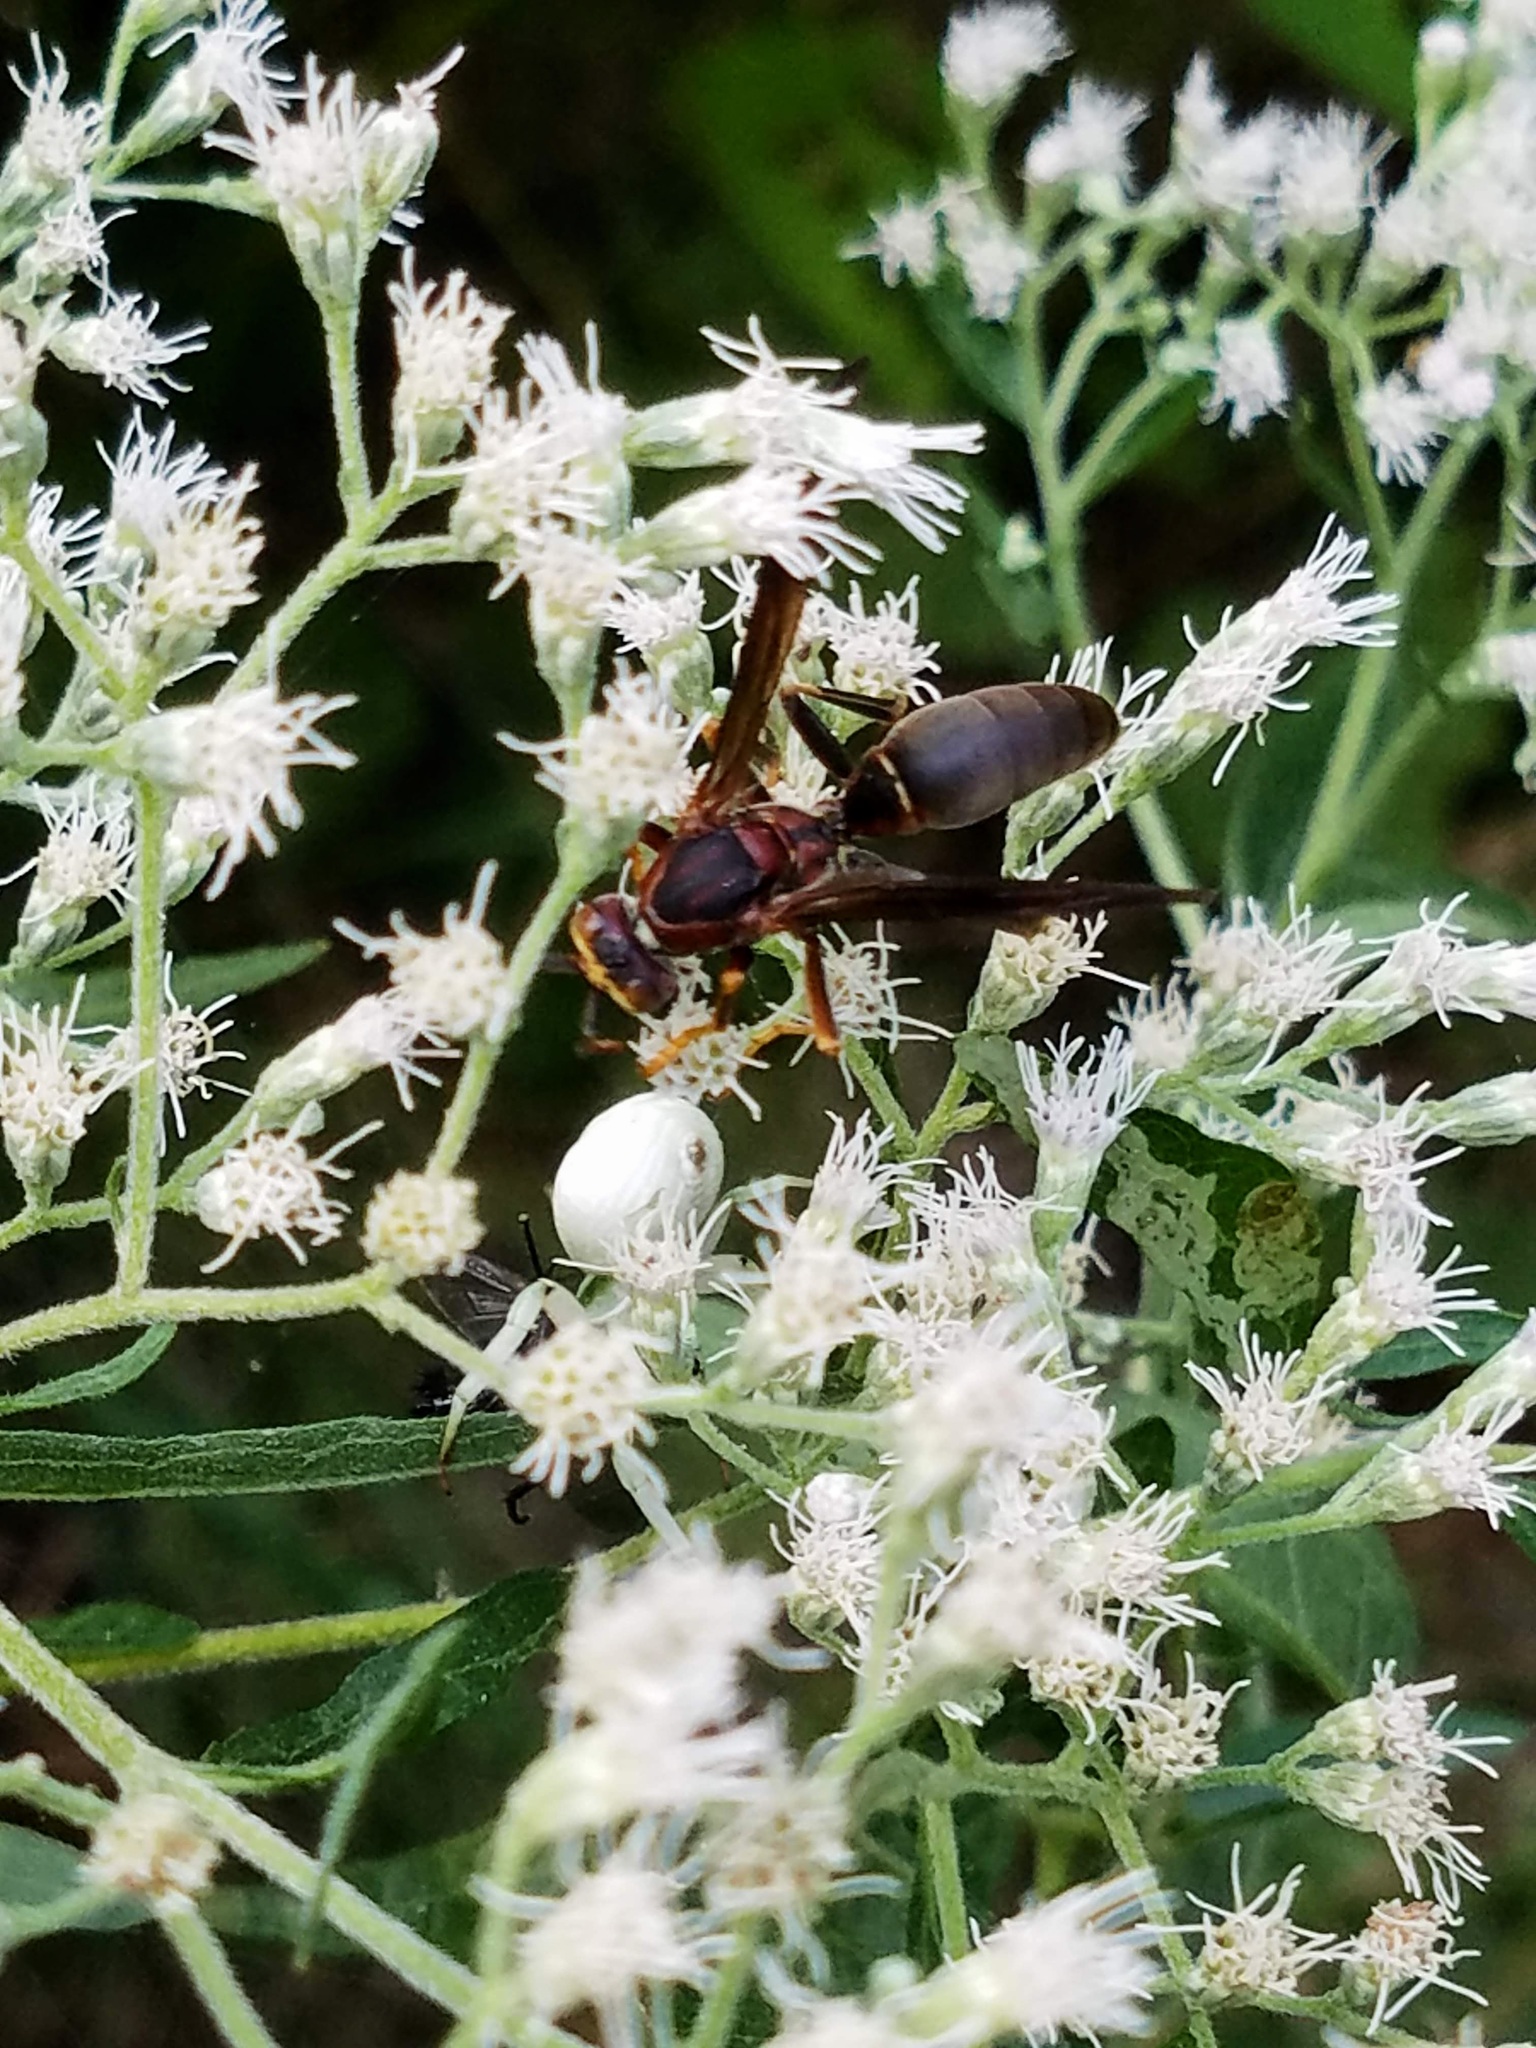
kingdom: Animalia
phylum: Arthropoda
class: Insecta
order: Hymenoptera
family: Eumenidae
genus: Polistes
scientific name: Polistes metricus
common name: Metric paper wasp
